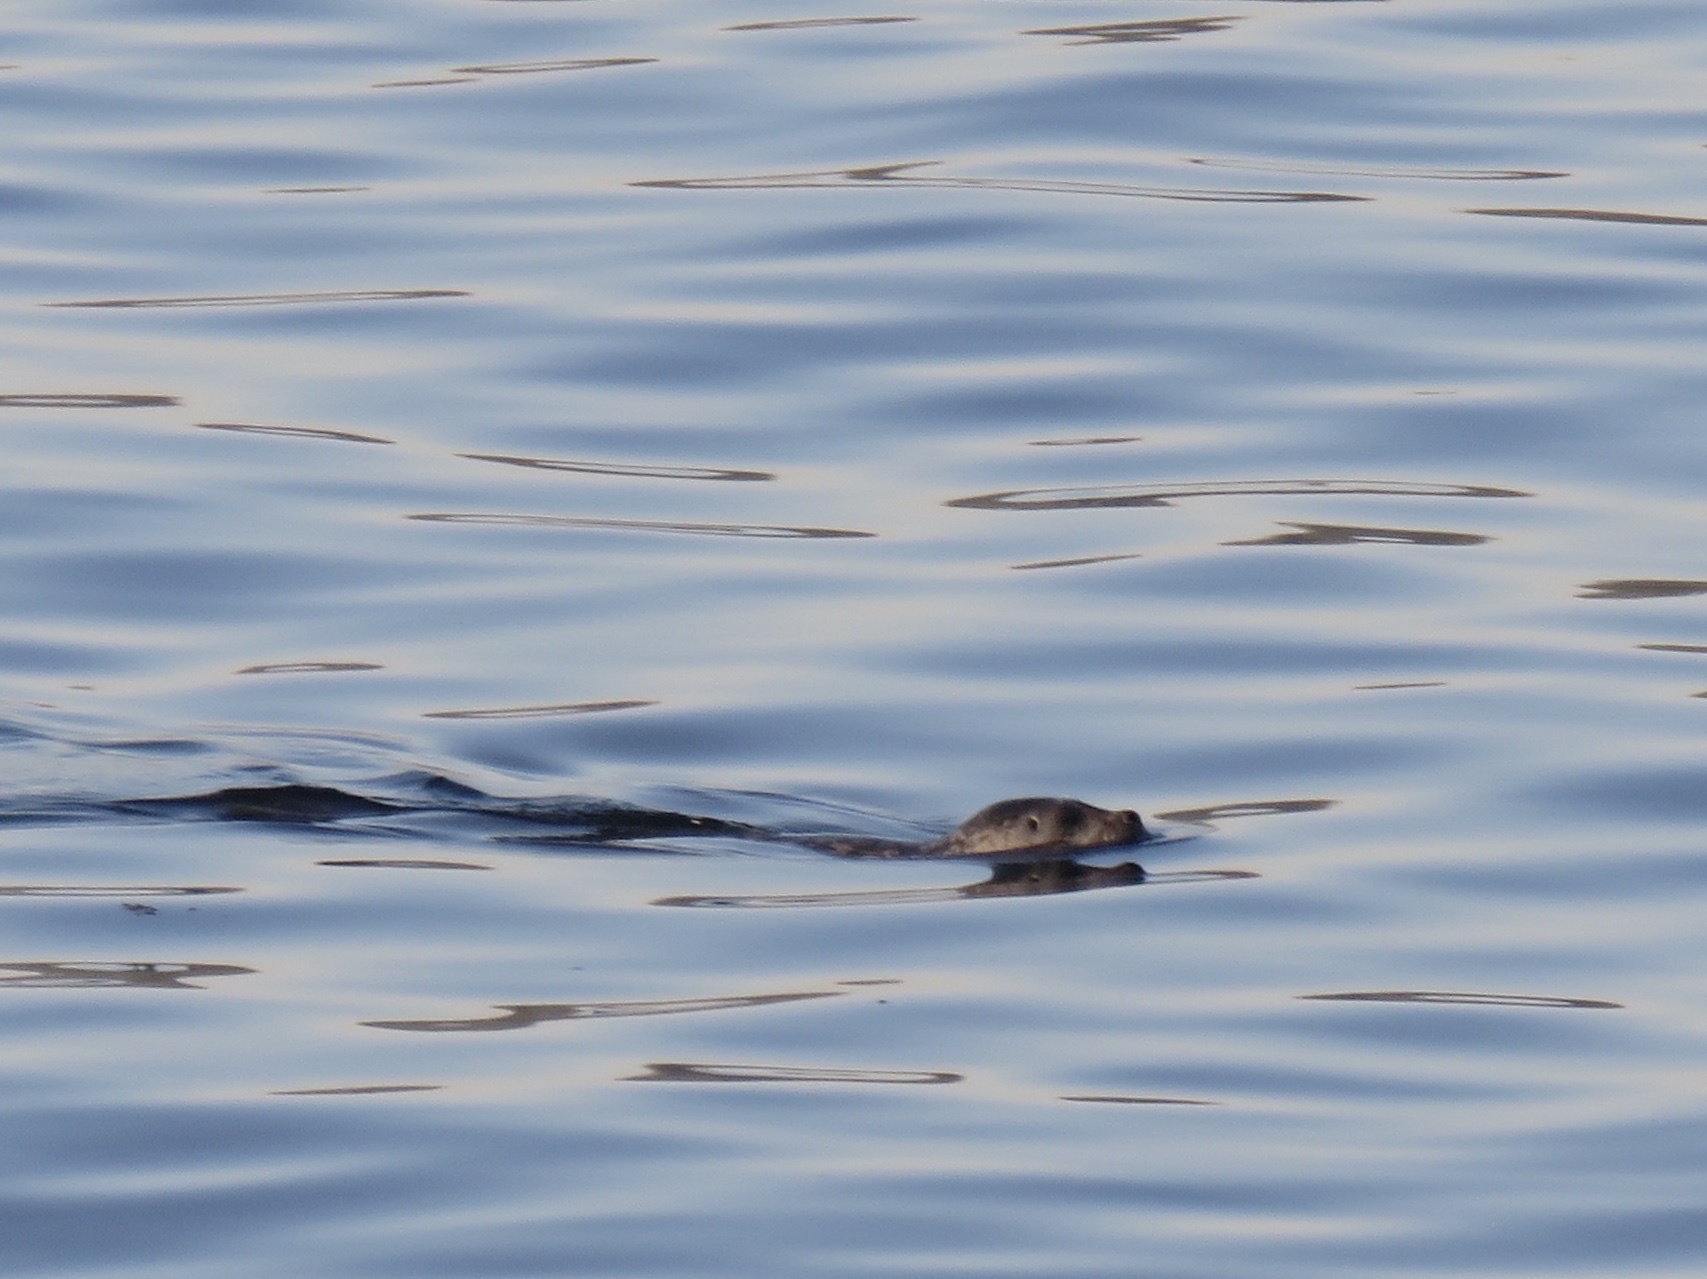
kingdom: Animalia
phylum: Chordata
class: Mammalia
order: Carnivora
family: Phocidae
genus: Phoca
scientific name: Phoca vitulina
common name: Harbor seal
